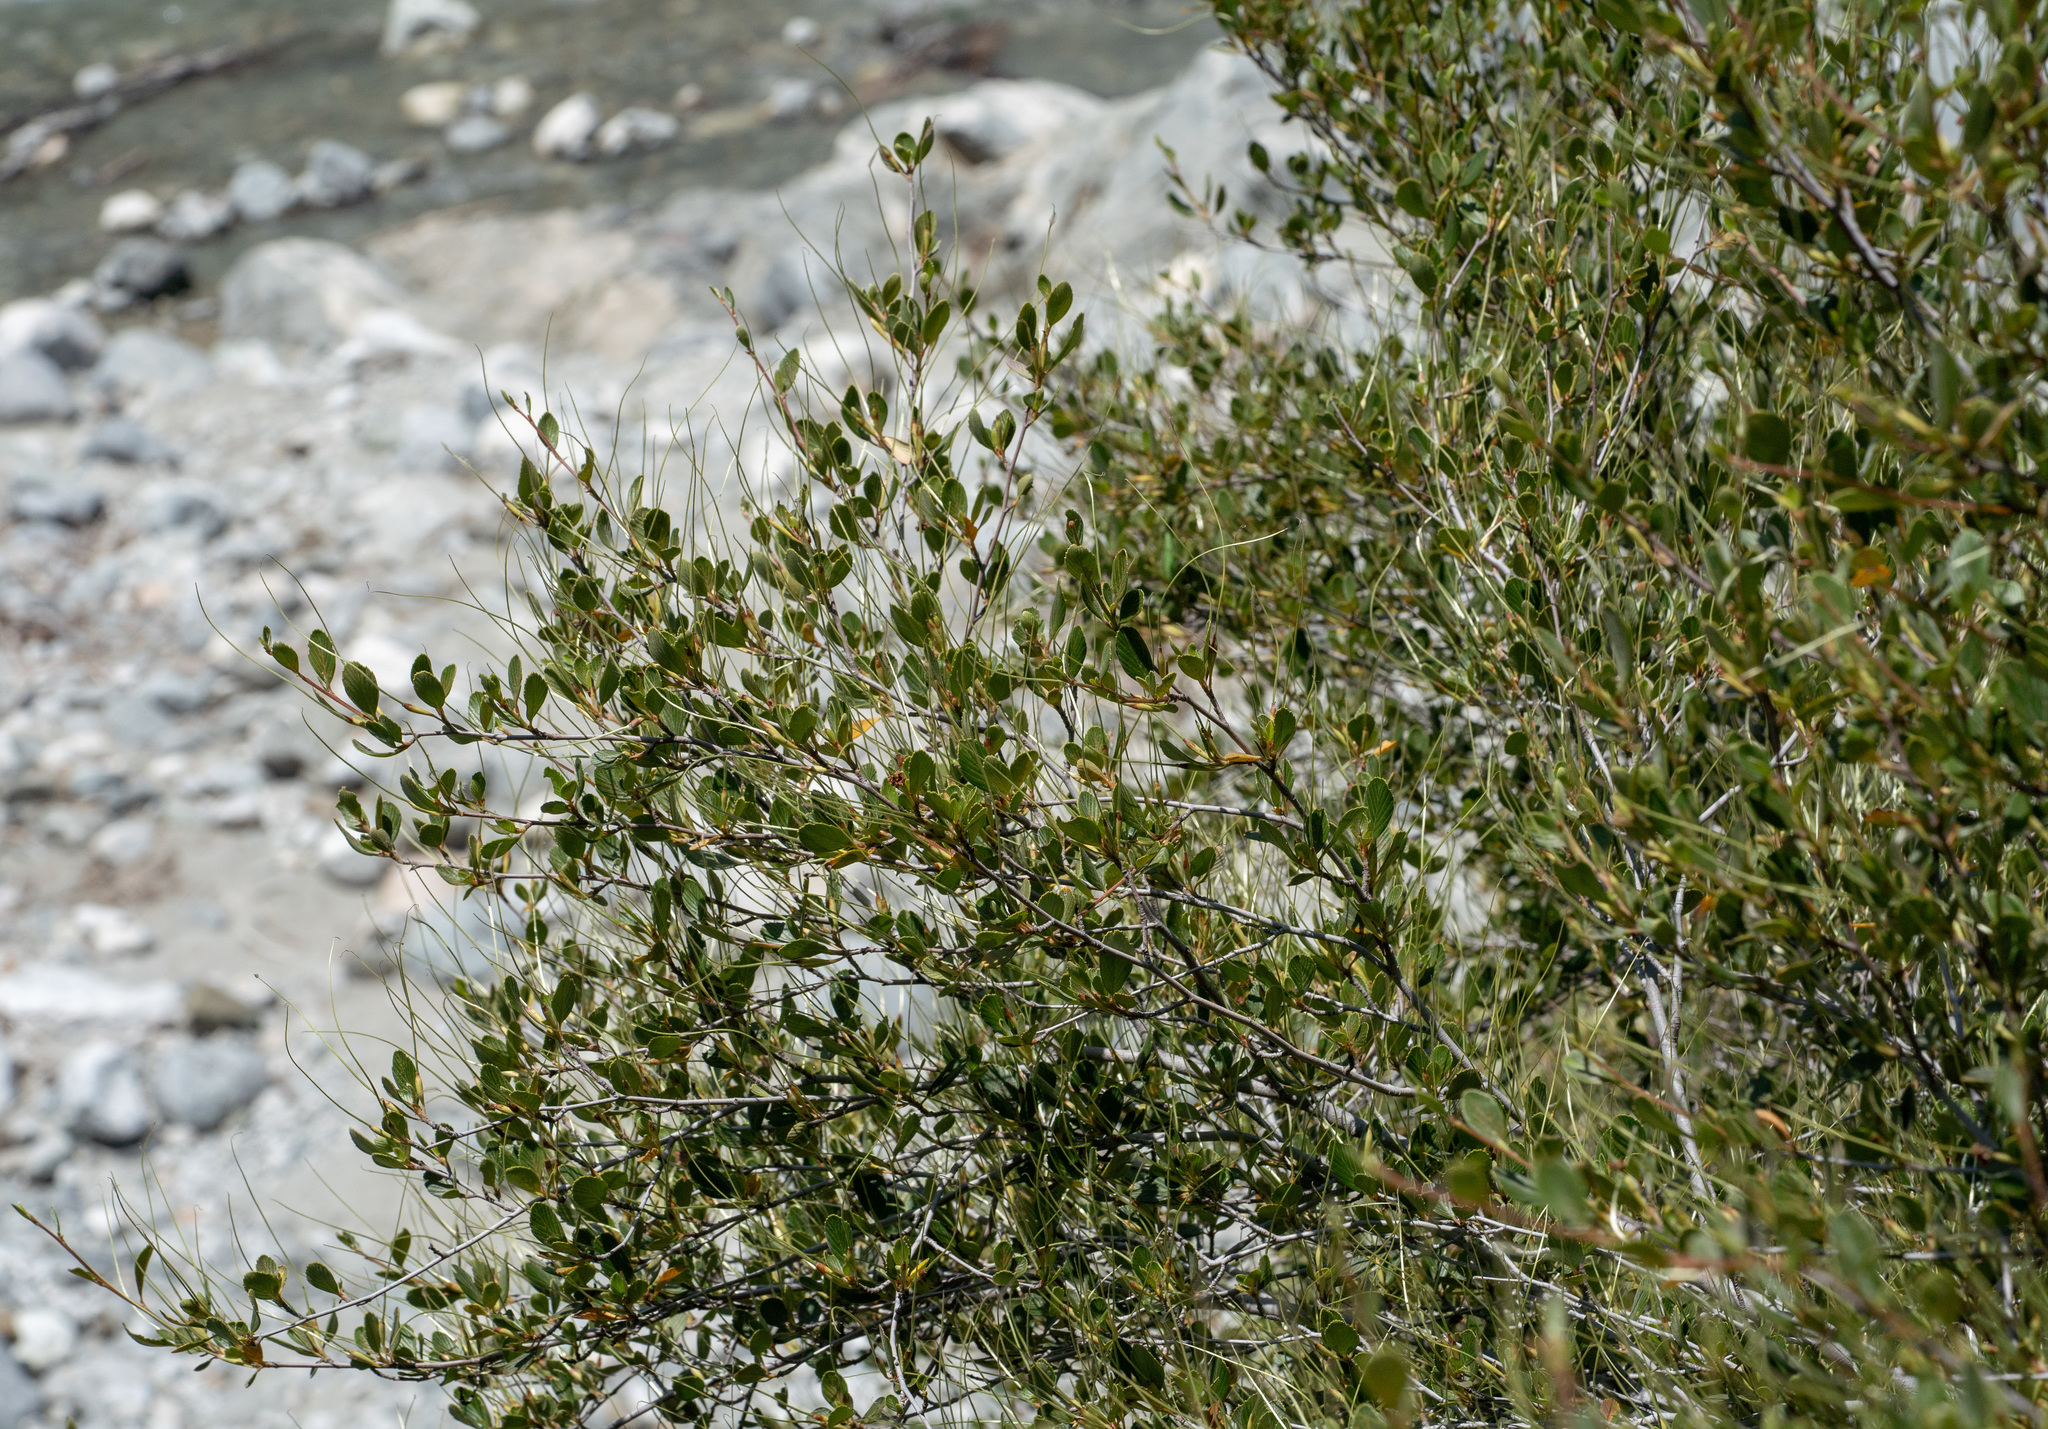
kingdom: Plantae
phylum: Tracheophyta
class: Magnoliopsida
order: Rosales
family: Rosaceae
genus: Cercocarpus
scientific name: Cercocarpus betuloides
